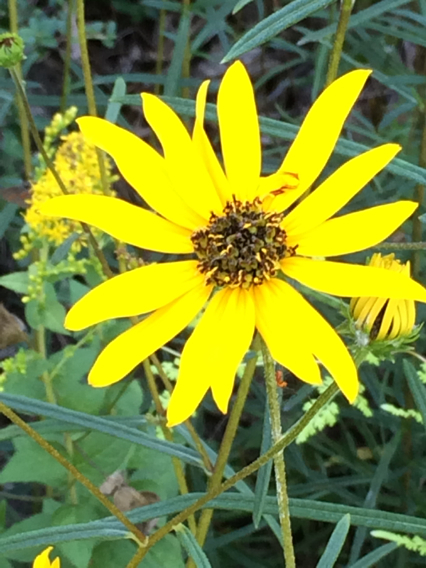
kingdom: Plantae
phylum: Tracheophyta
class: Magnoliopsida
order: Asterales
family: Asteraceae
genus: Helianthus
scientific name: Helianthus angustifolius
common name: Swamp sunflower
